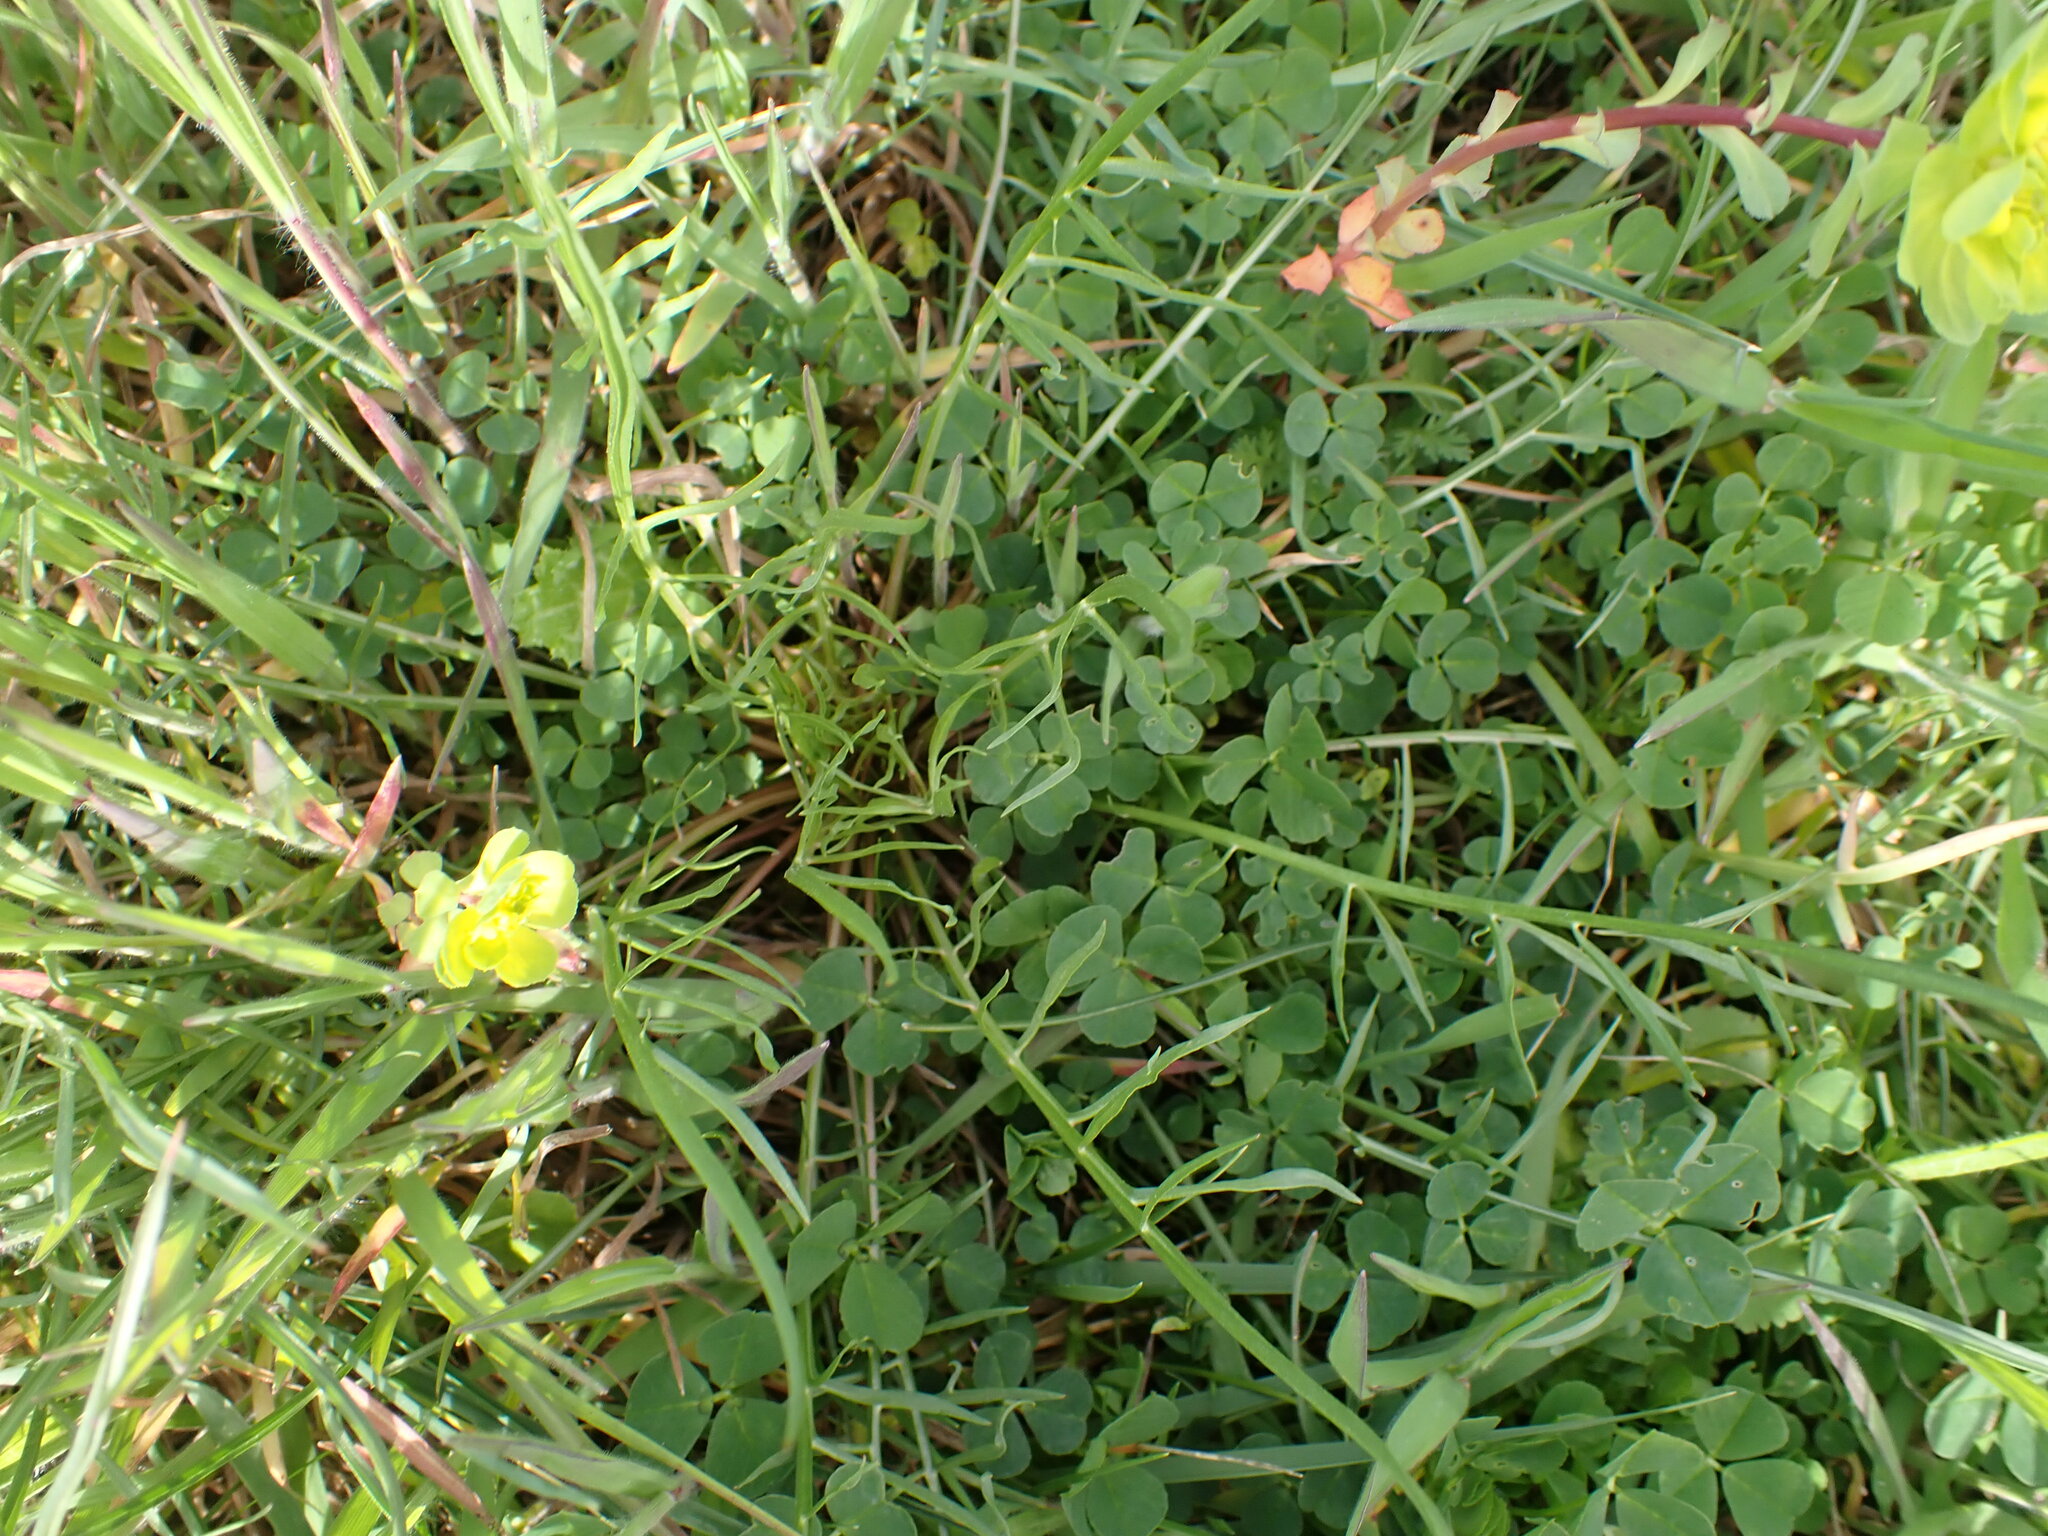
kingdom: Plantae
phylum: Tracheophyta
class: Magnoliopsida
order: Asterales
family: Asteraceae
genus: Scorzonera
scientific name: Scorzonera laciniata
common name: Cutleaf vipergrass
